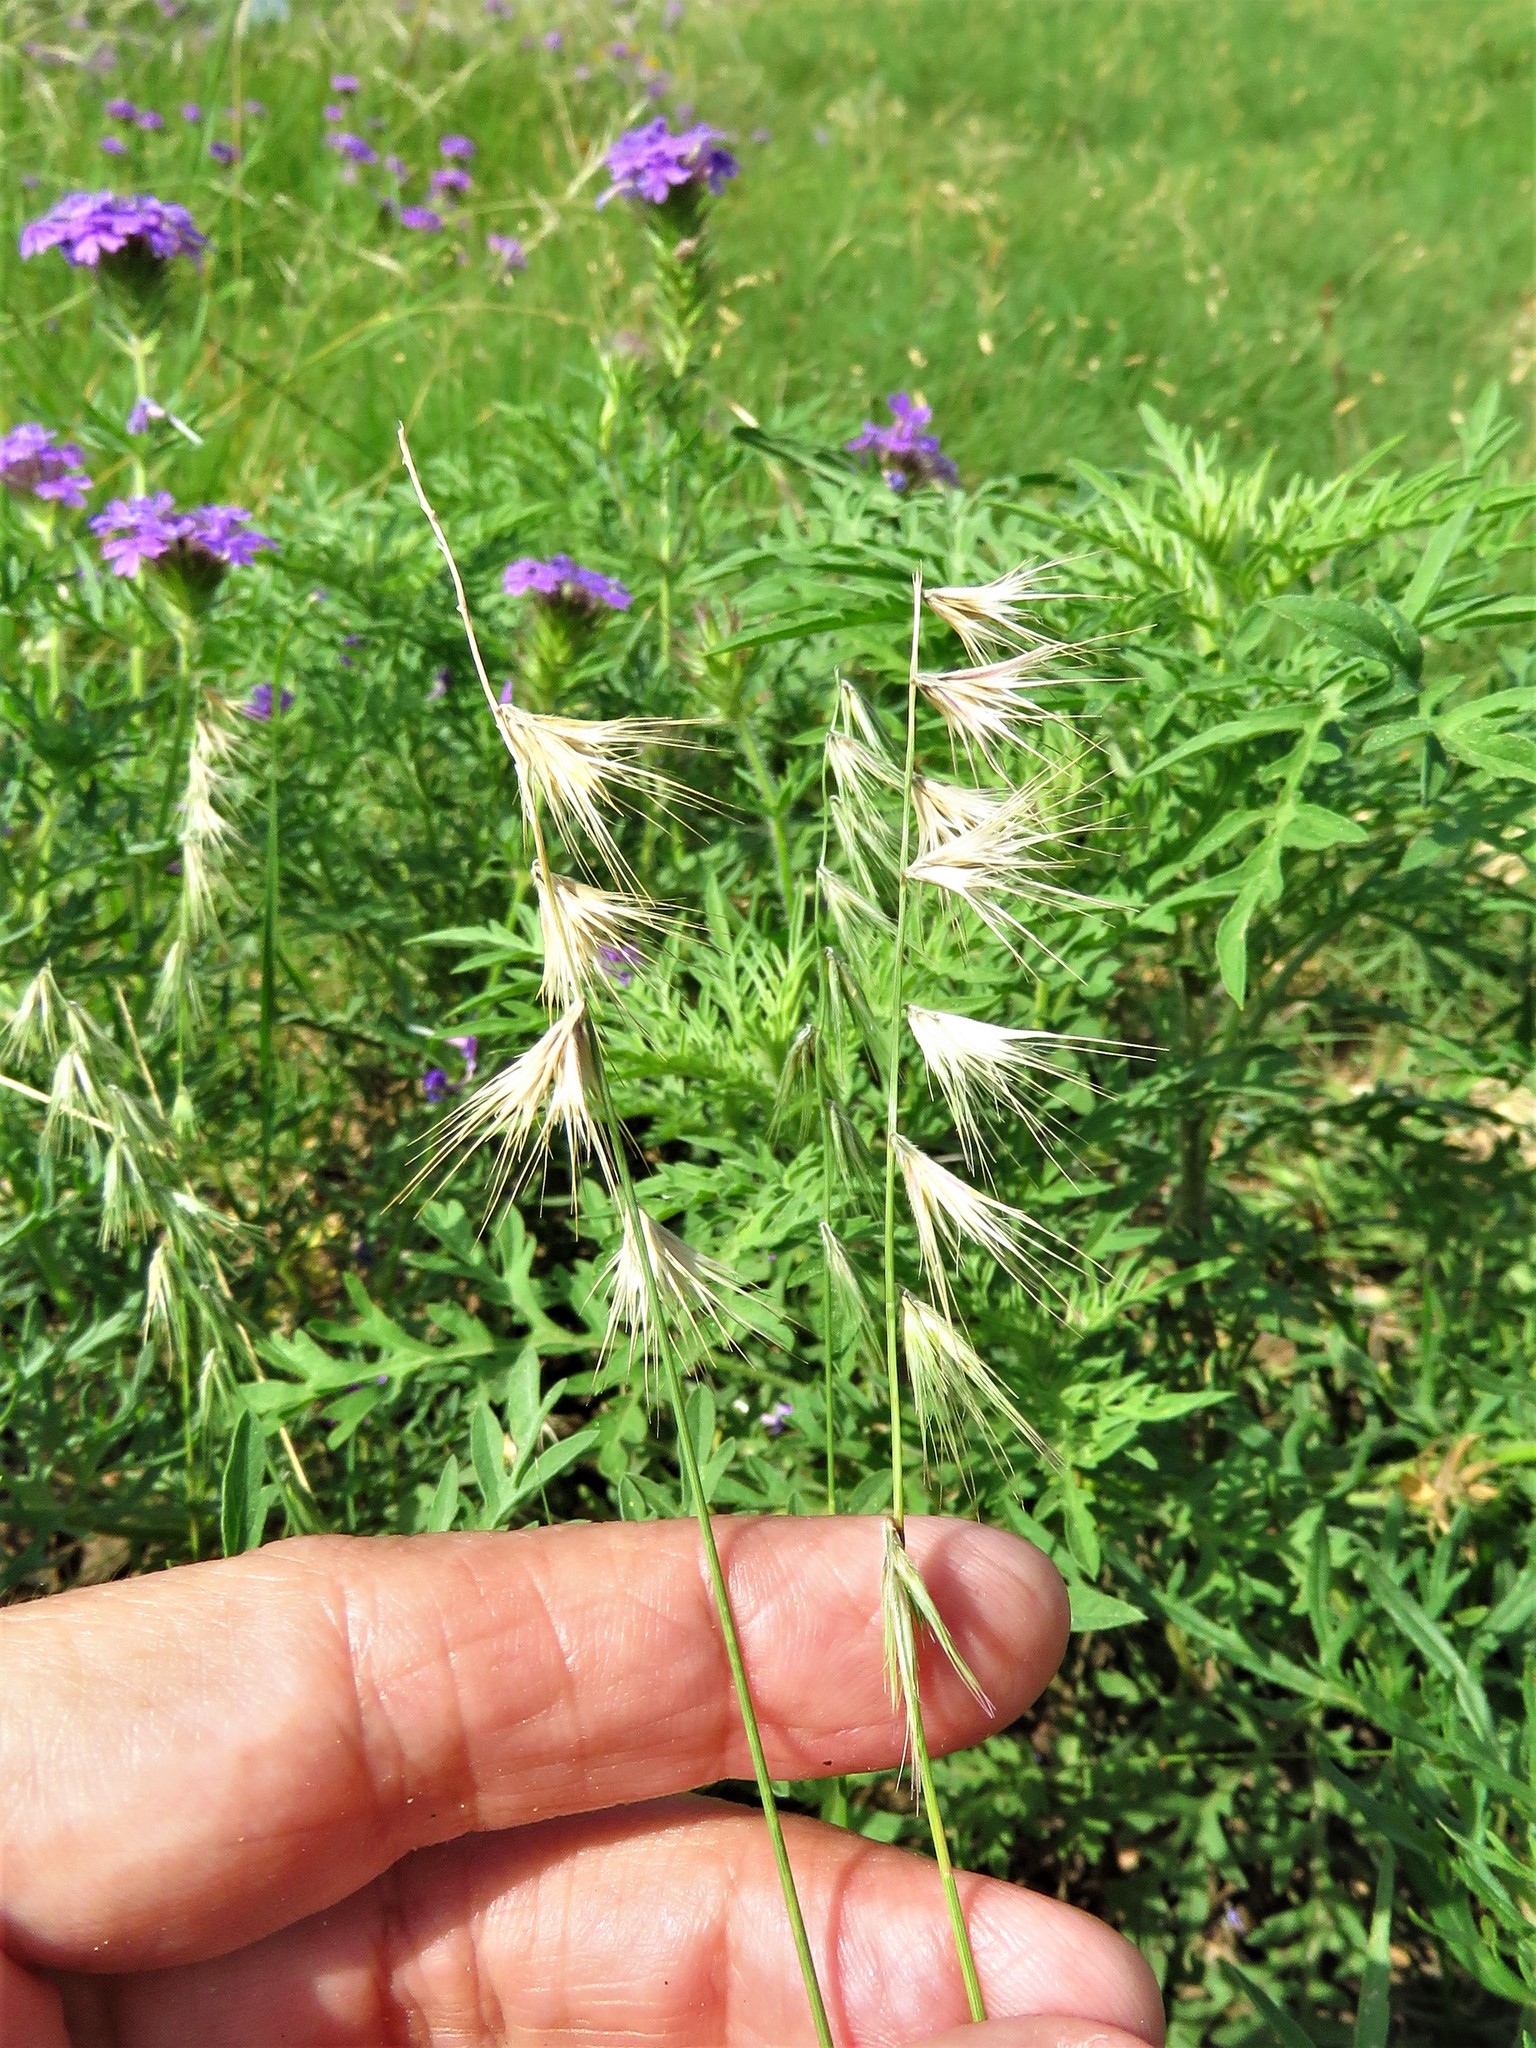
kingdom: Plantae
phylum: Tracheophyta
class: Liliopsida
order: Poales
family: Poaceae
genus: Bouteloua
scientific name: Bouteloua rigidiseta
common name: Texas grama
